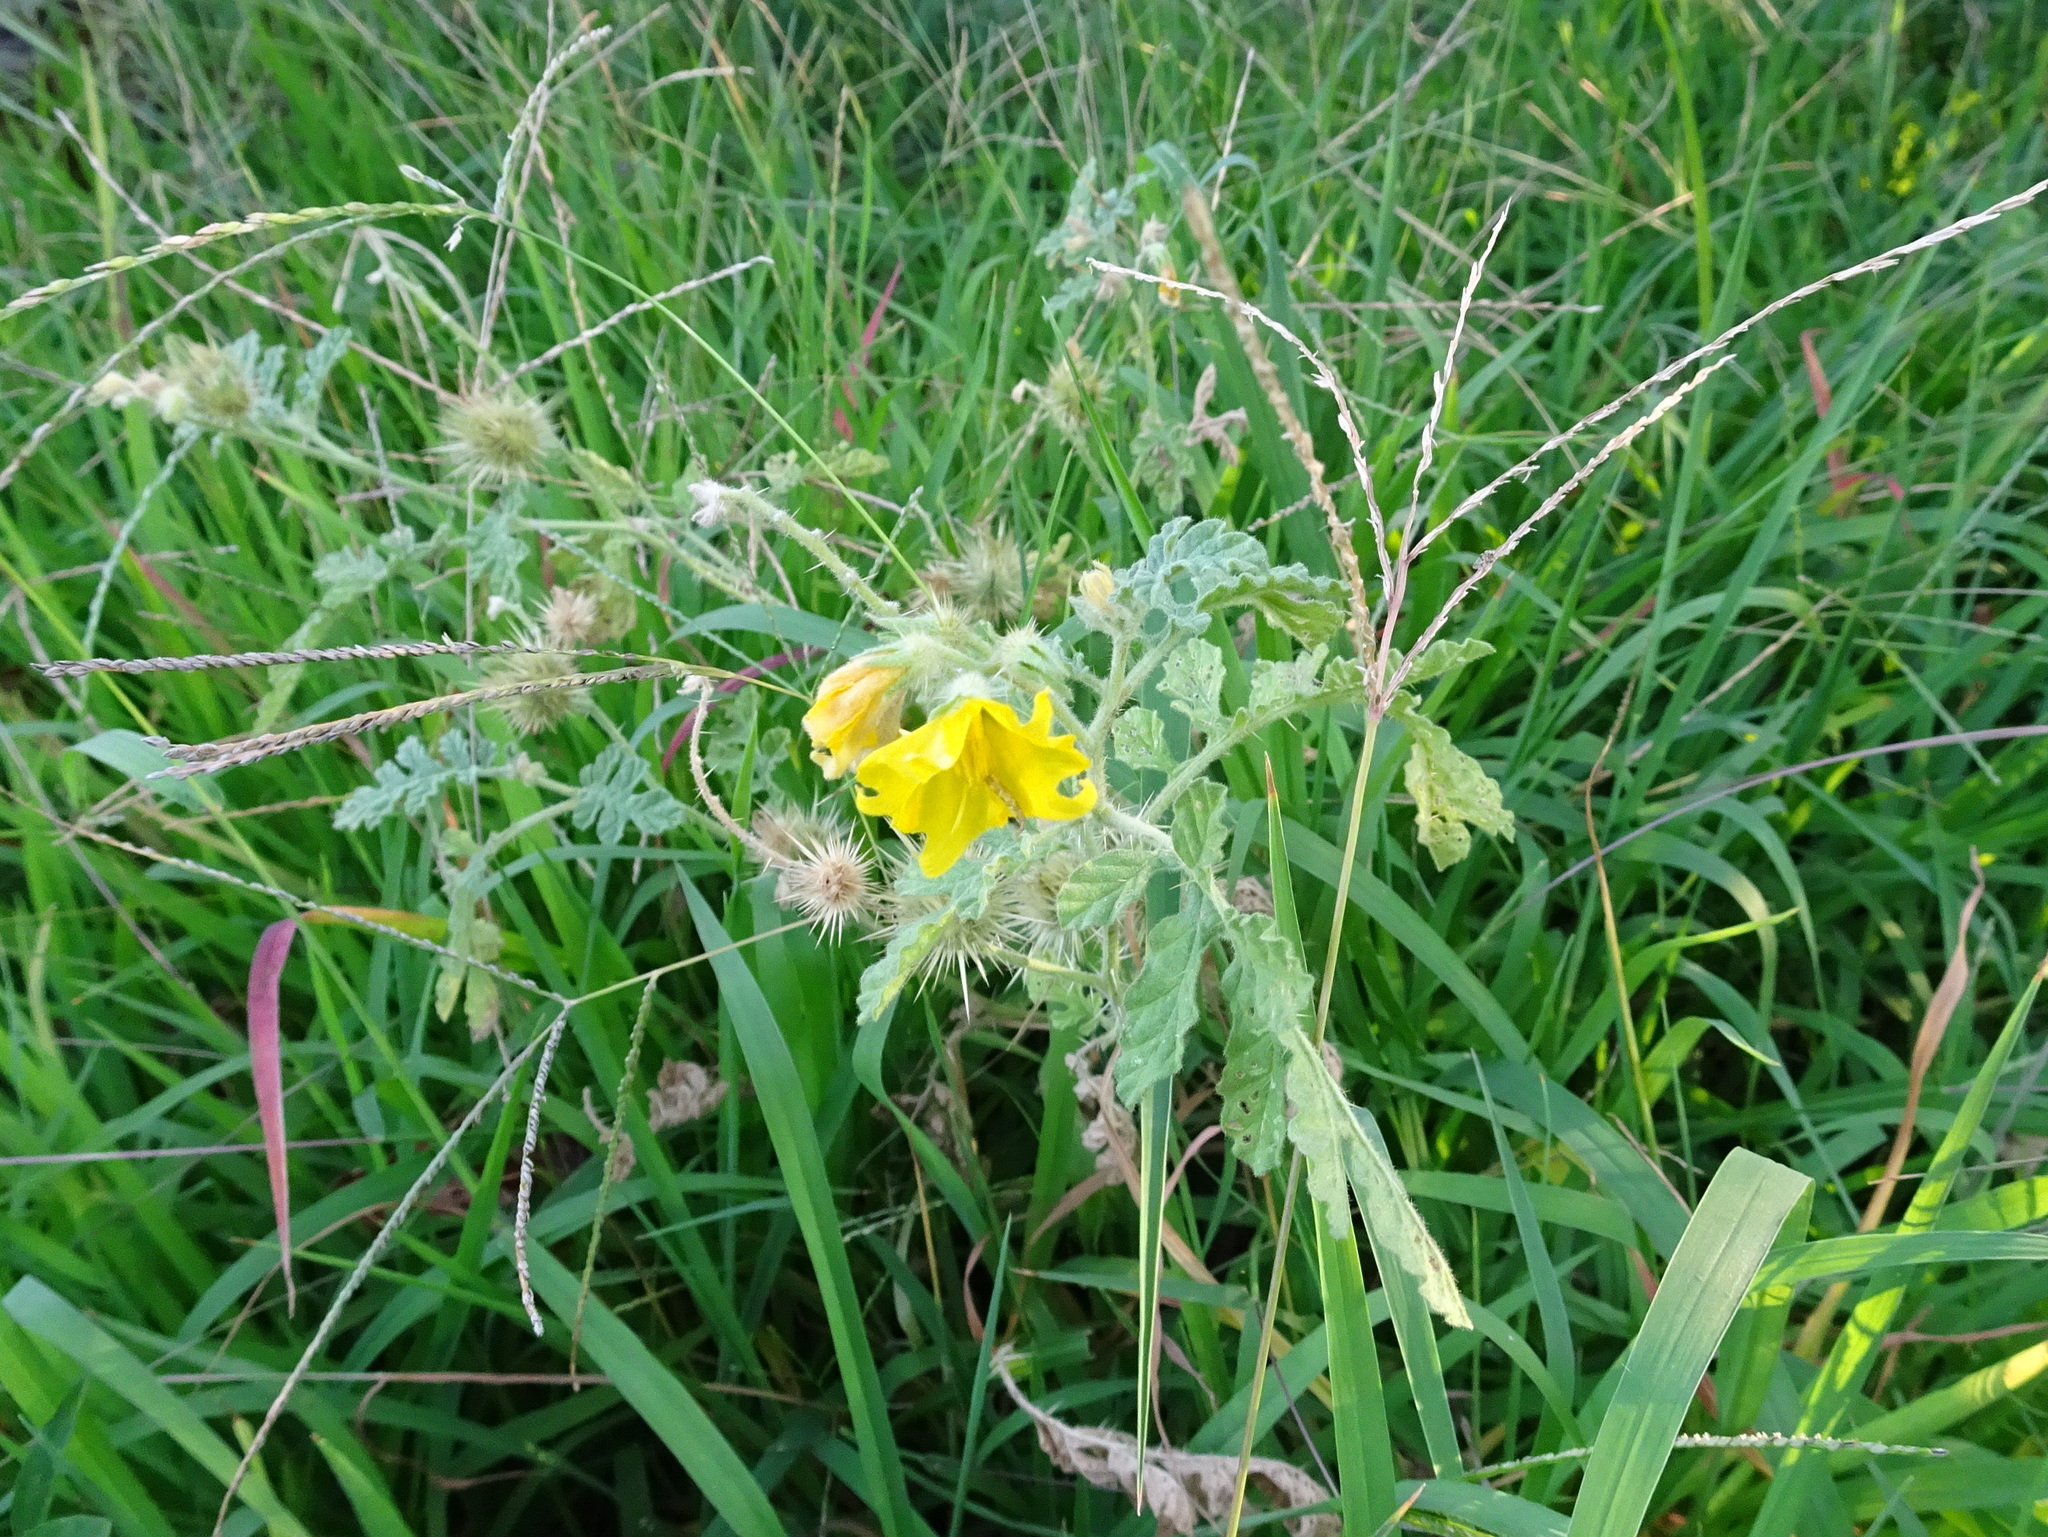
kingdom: Plantae
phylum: Tracheophyta
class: Magnoliopsida
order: Solanales
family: Solanaceae
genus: Solanum
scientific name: Solanum angustifolium
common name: Buffalobur nightshade
